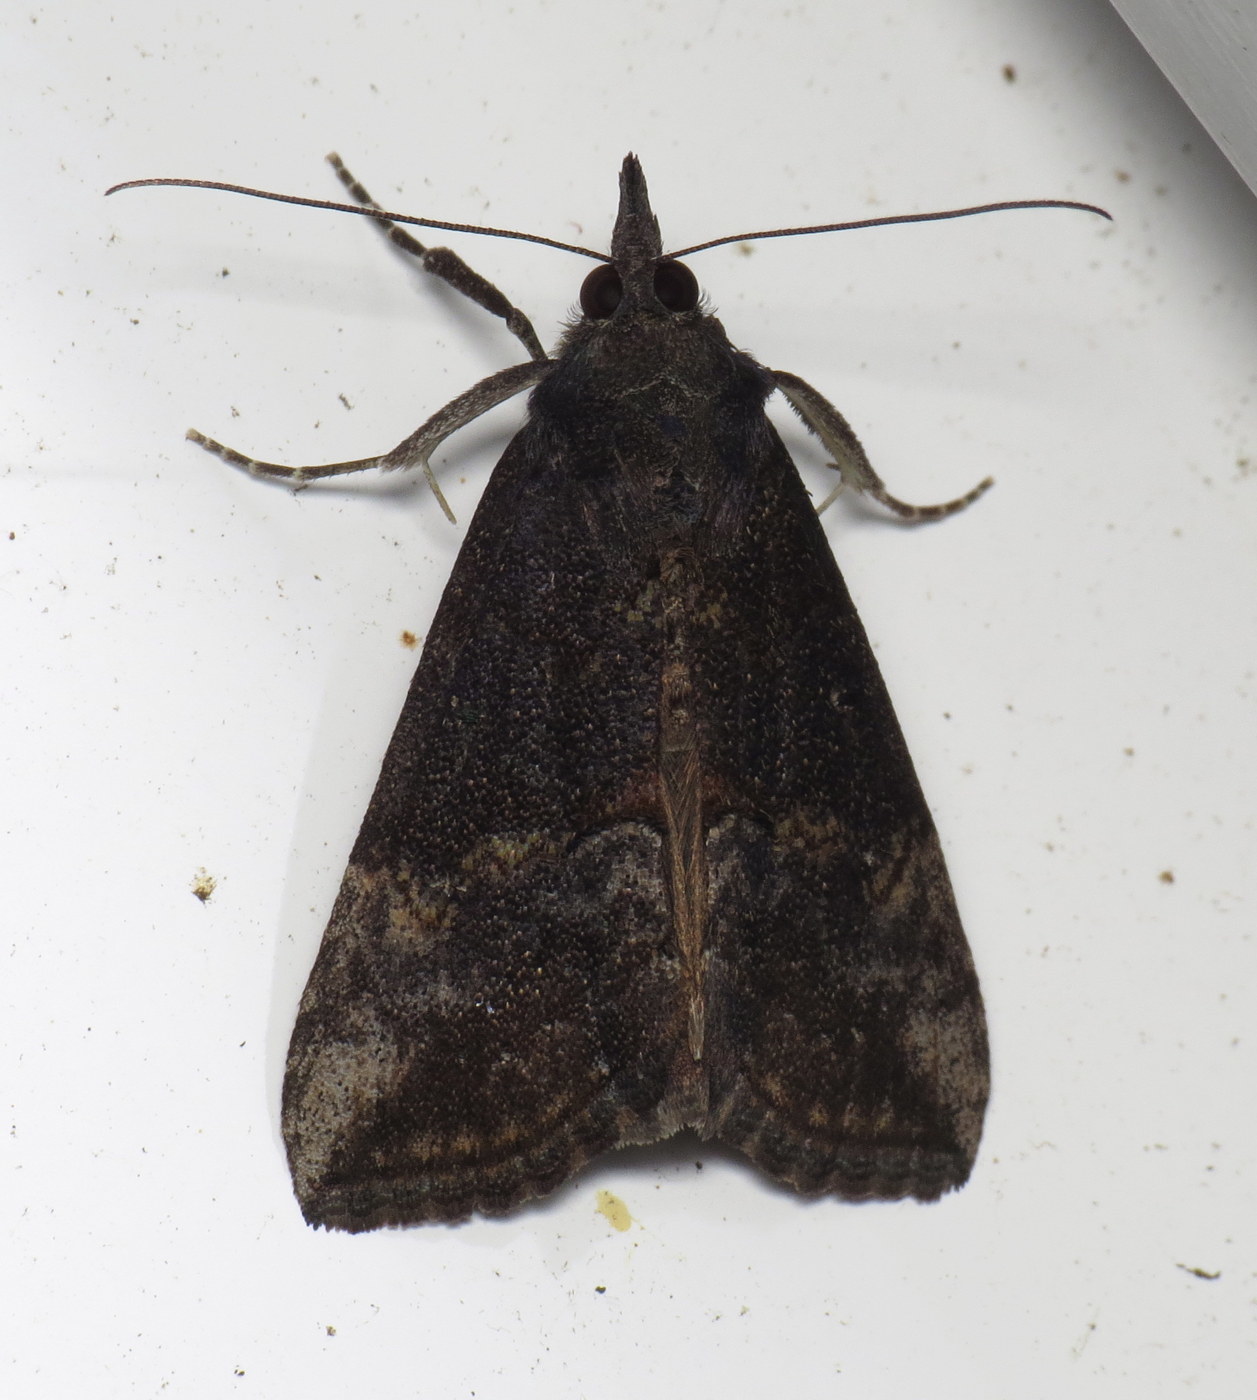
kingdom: Animalia
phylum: Arthropoda
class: Insecta
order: Lepidoptera
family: Erebidae
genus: Hypena
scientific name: Hypena scabra
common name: Green cloverworm
